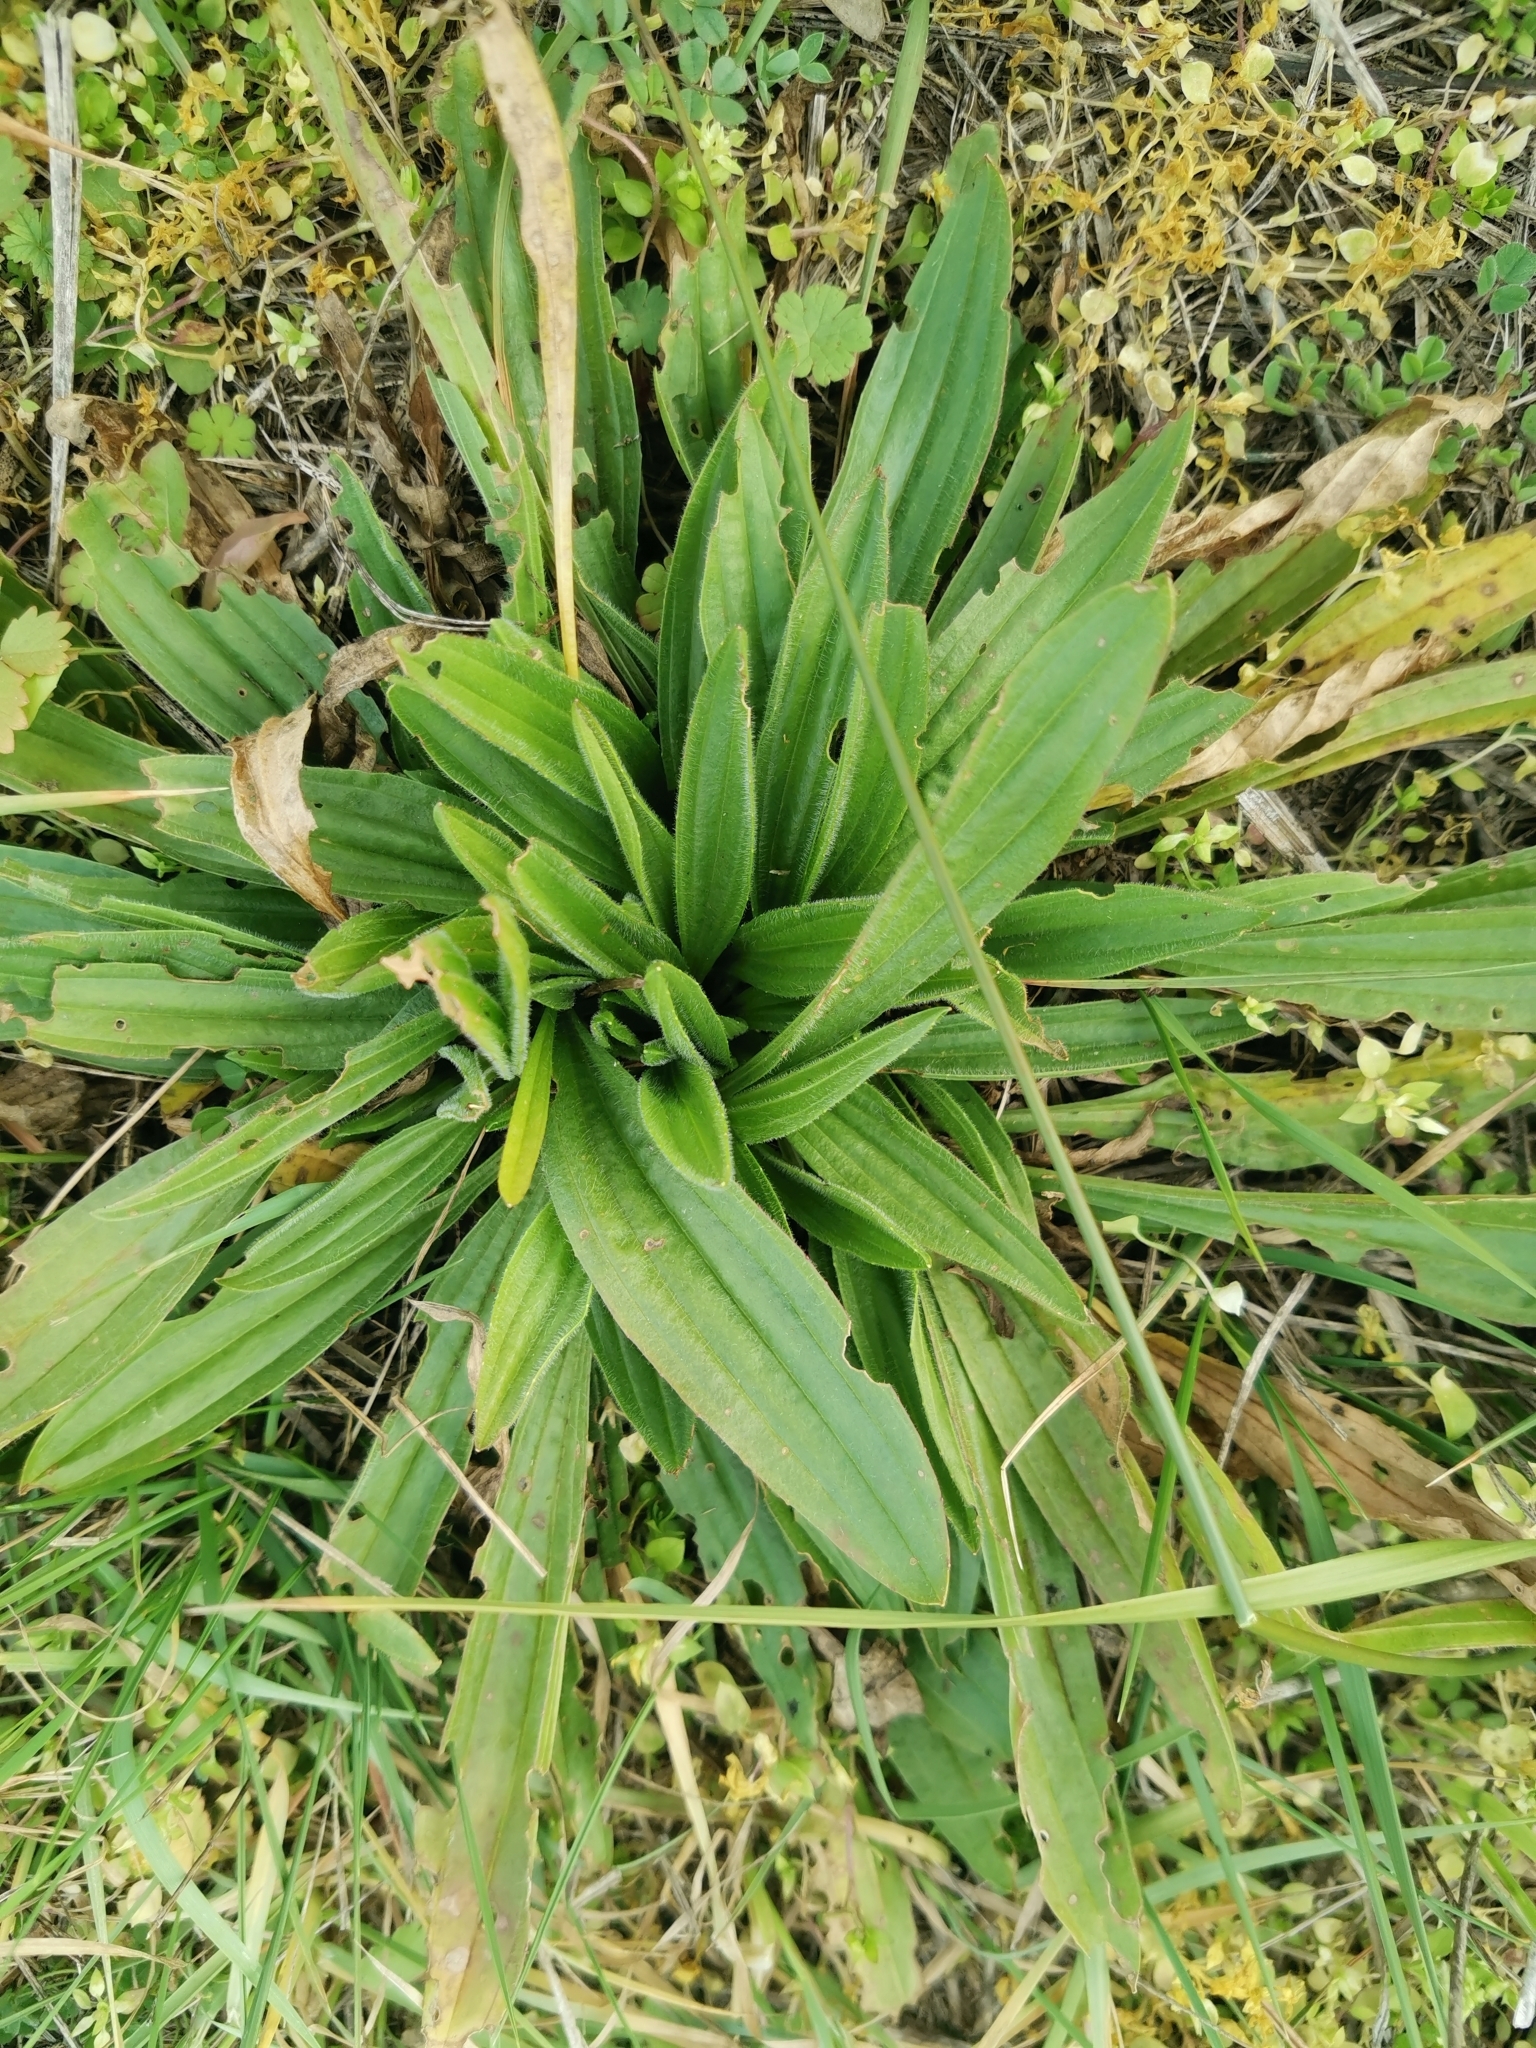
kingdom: Plantae
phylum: Tracheophyta
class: Magnoliopsida
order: Lamiales
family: Plantaginaceae
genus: Plantago
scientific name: Plantago lanceolata
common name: Ribwort plantain
